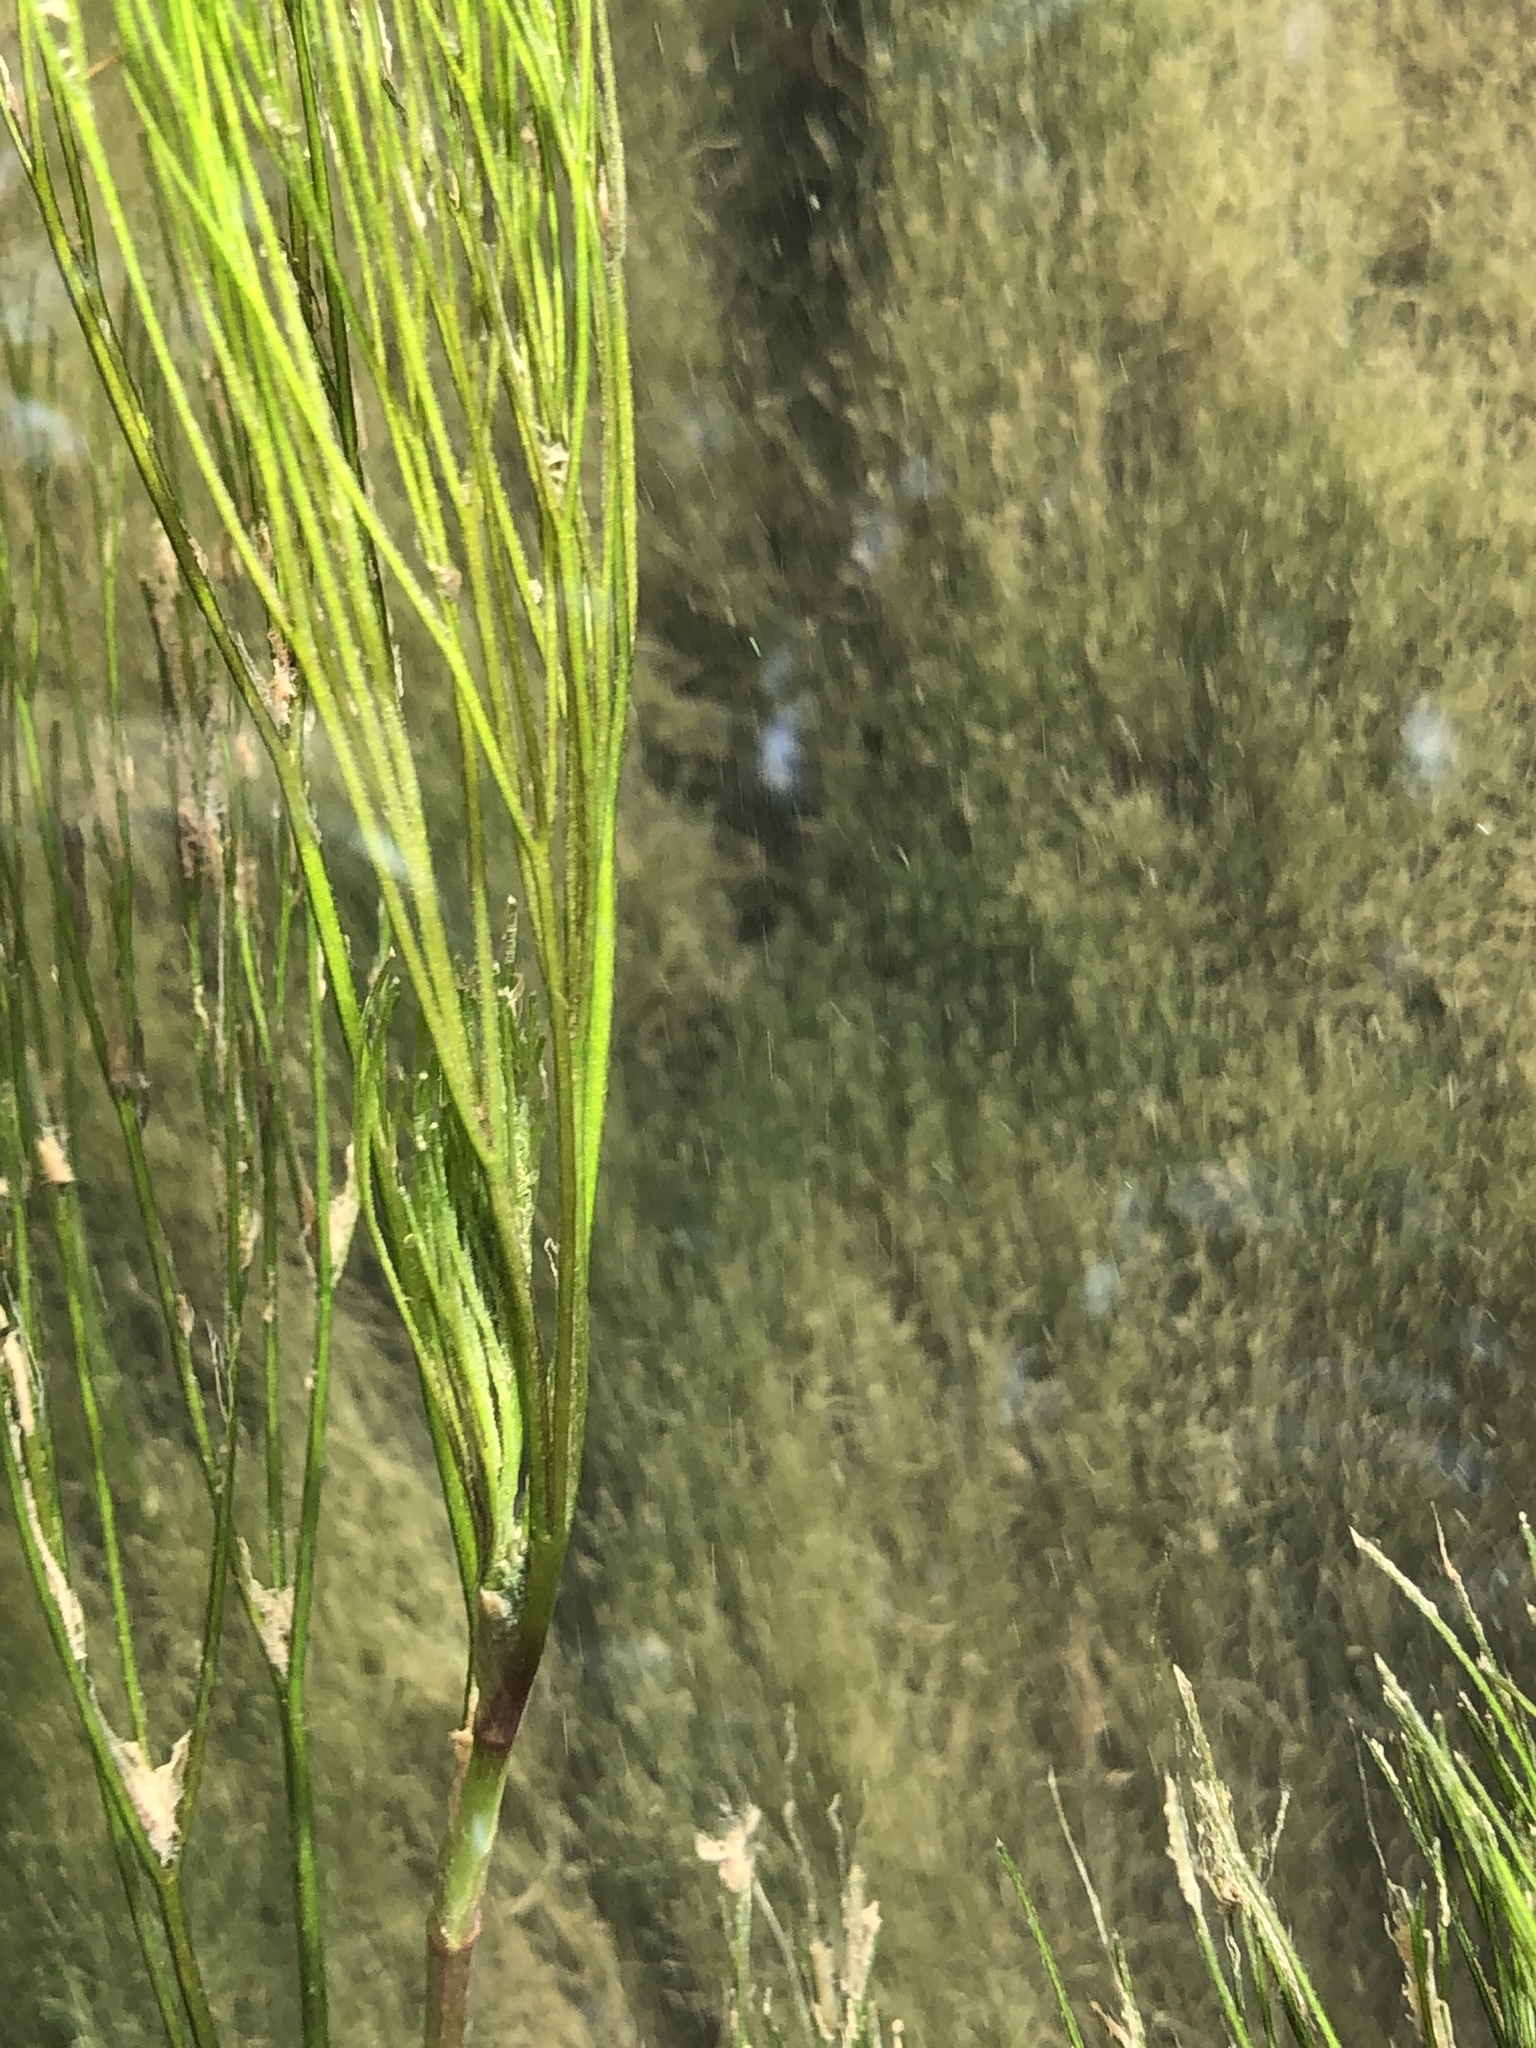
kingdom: Plantae
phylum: Tracheophyta
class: Magnoliopsida
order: Ranunculales
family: Ranunculaceae
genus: Ranunculus
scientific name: Ranunculus trichophyllus
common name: Thread-leaved water-crowfoot
